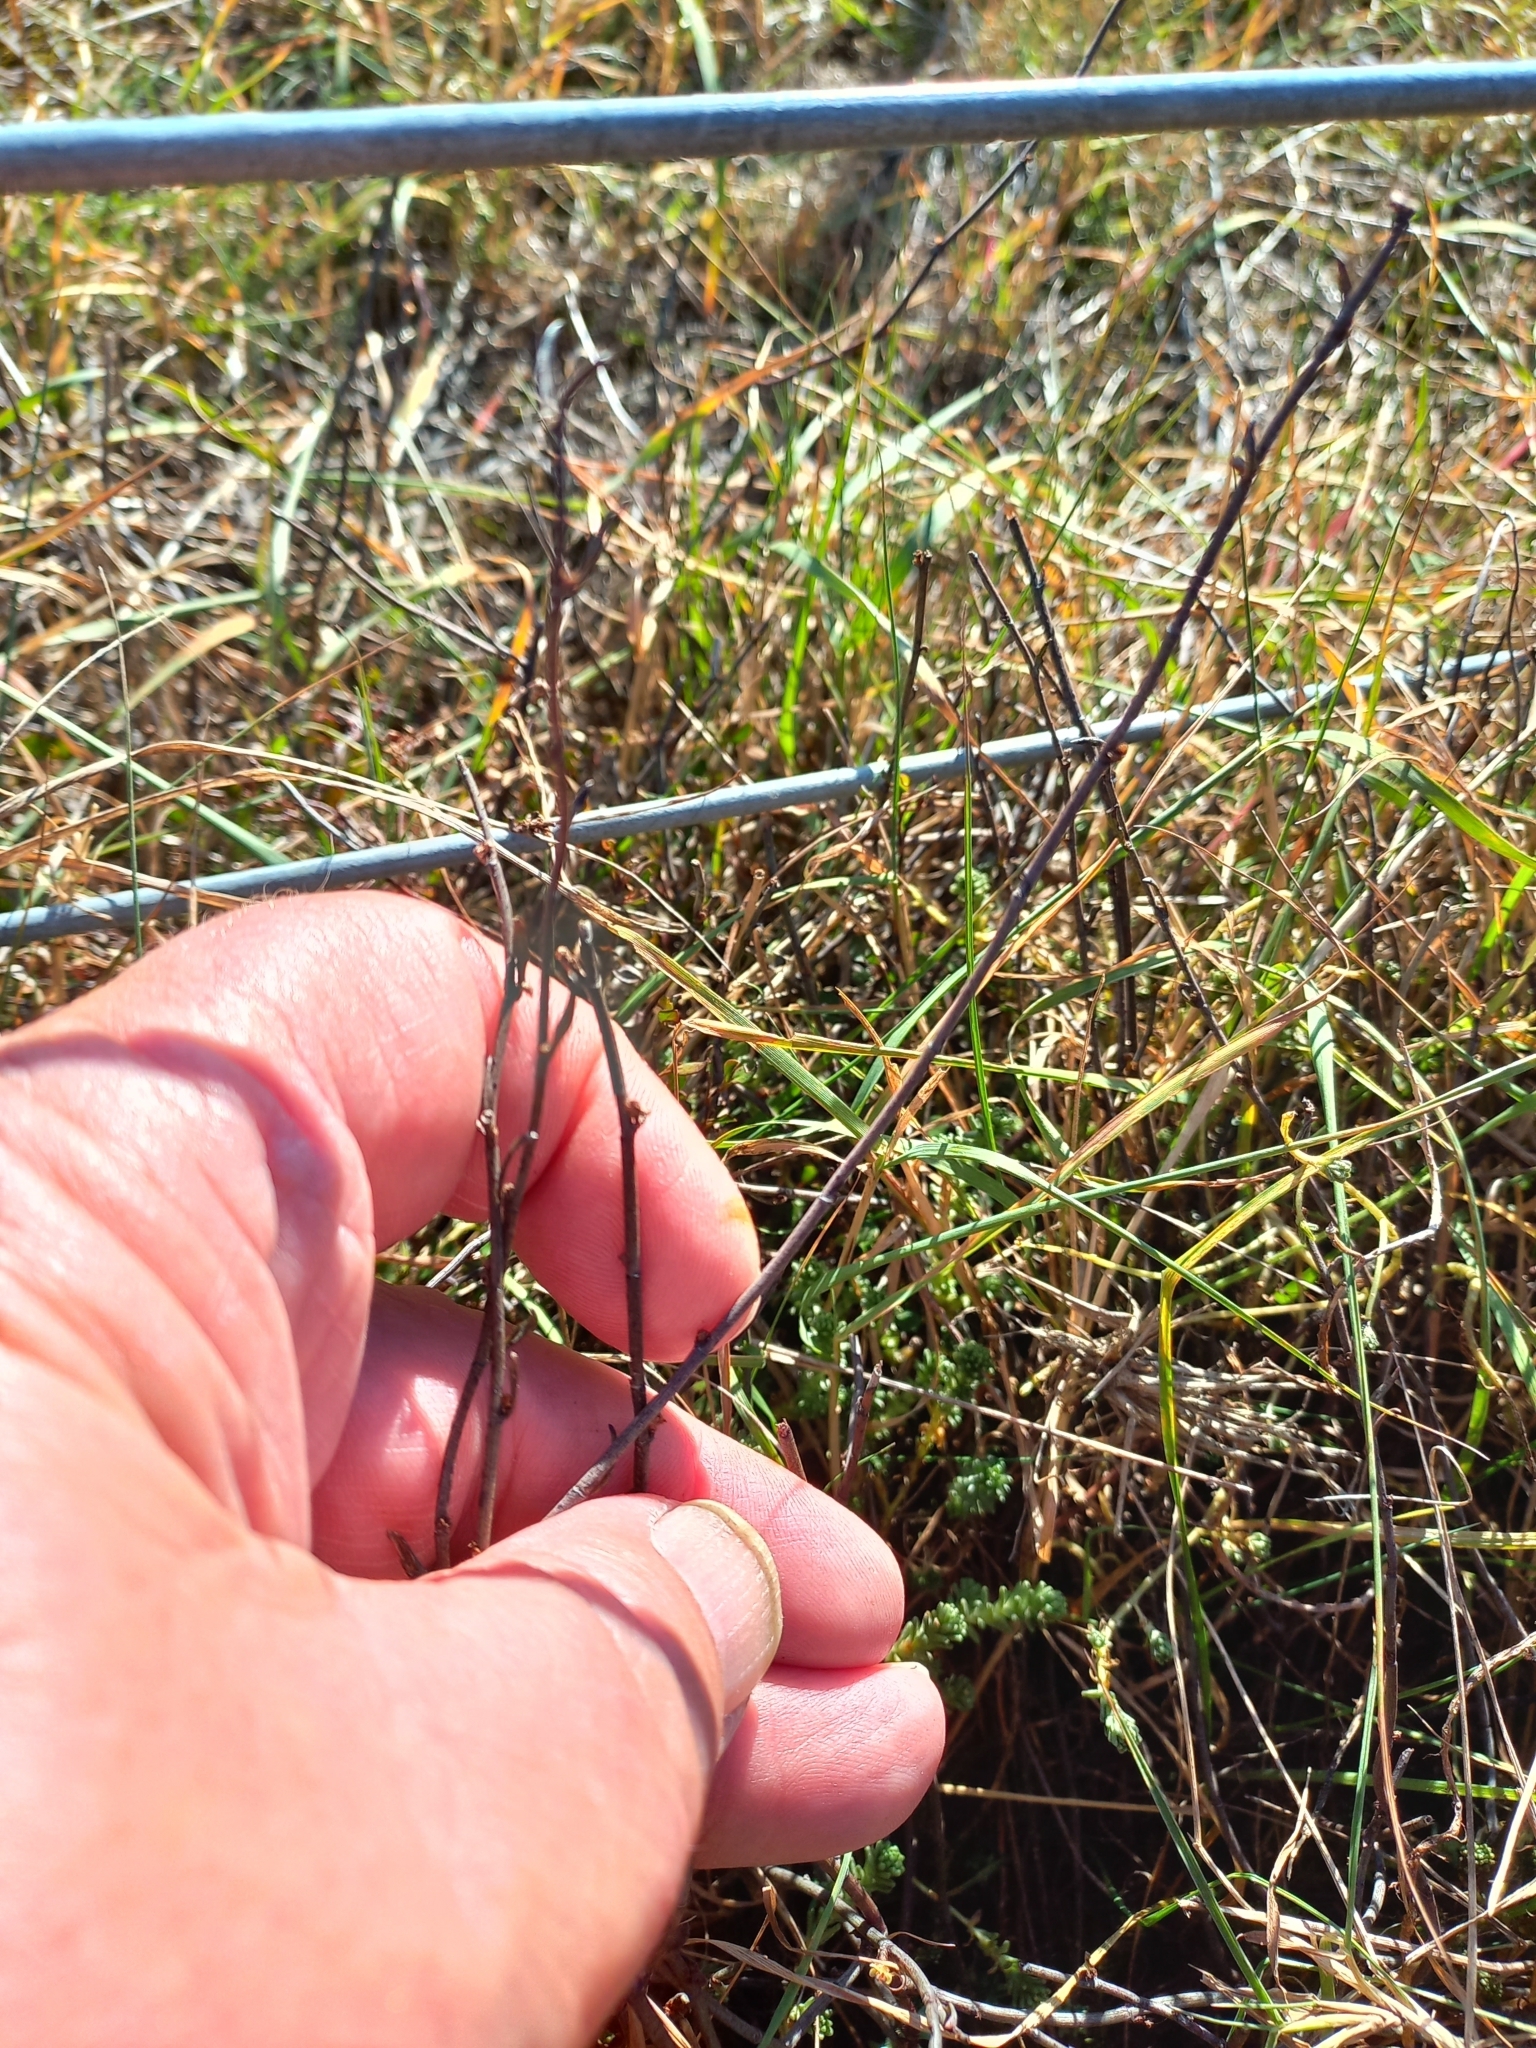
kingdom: Plantae
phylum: Tracheophyta
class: Magnoliopsida
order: Caryophyllales
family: Polygonaceae
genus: Muehlenbeckia
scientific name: Muehlenbeckia ephedroides
